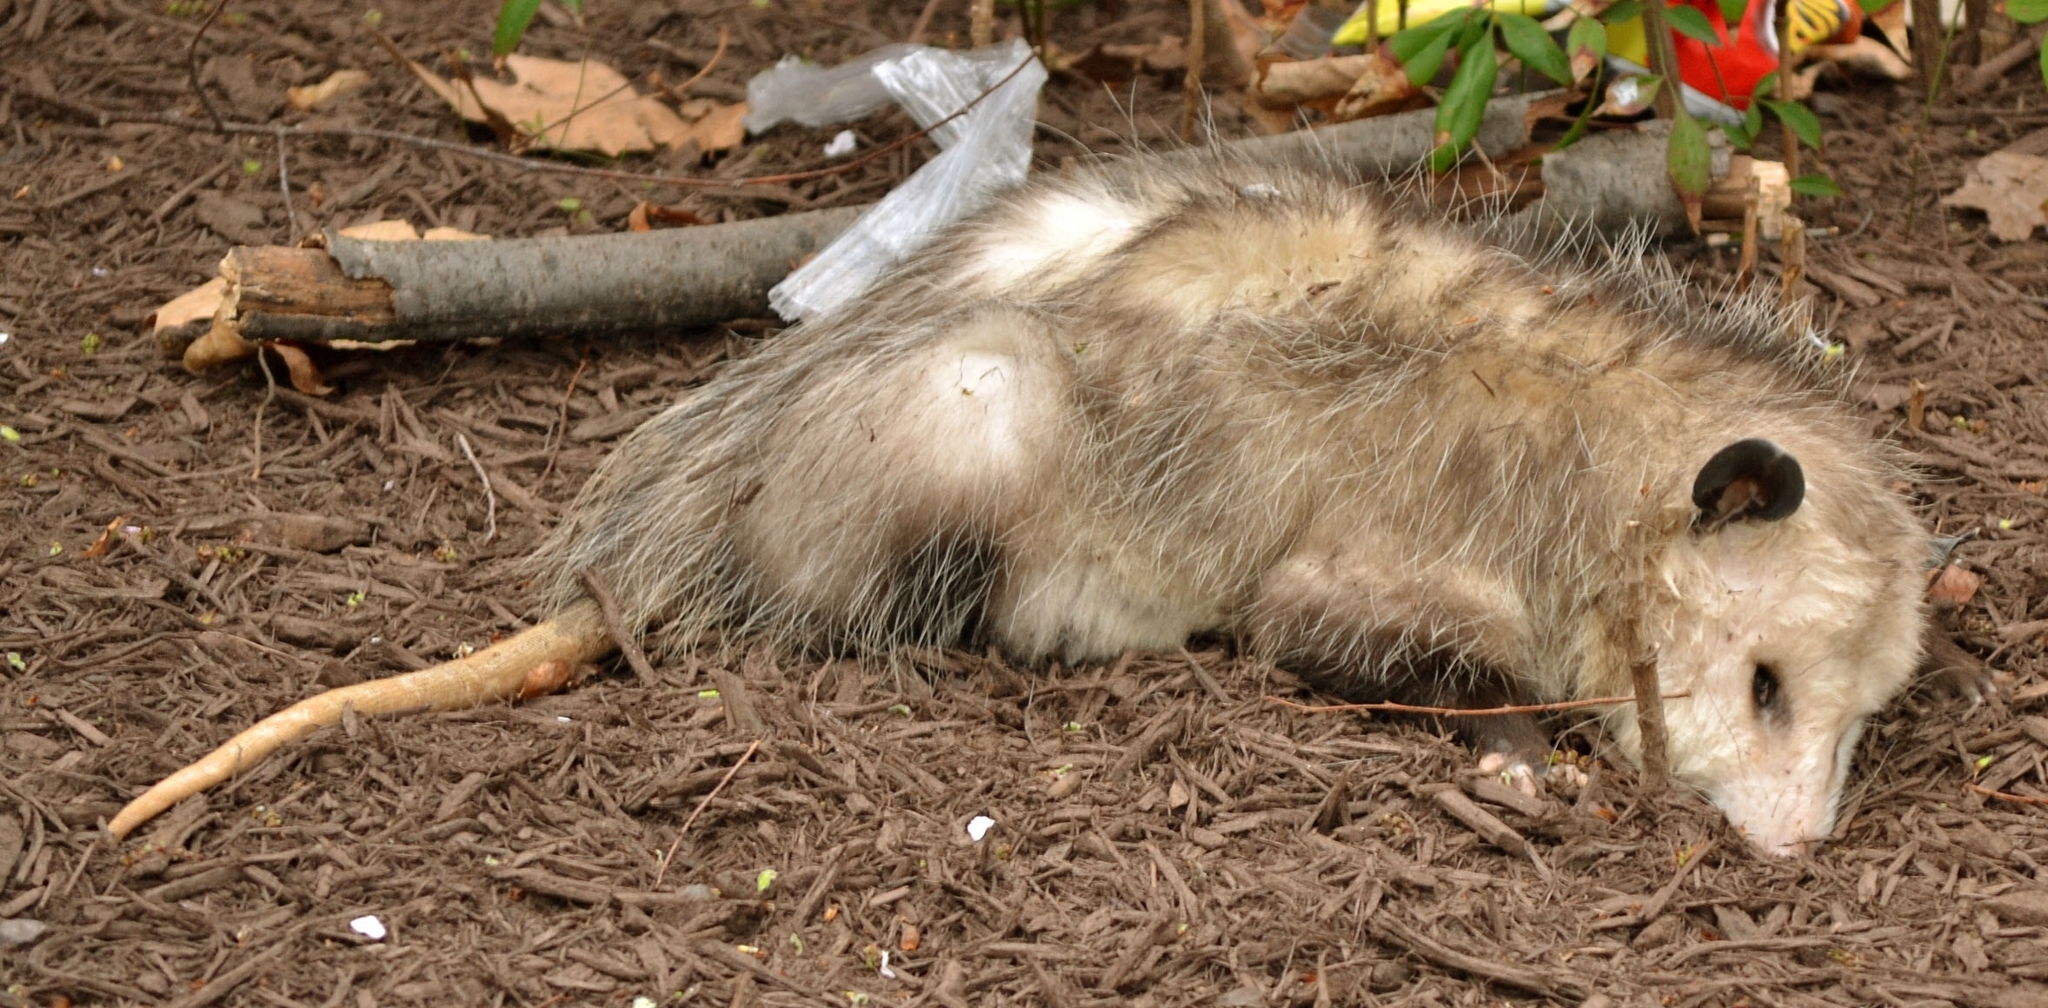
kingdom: Animalia
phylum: Chordata
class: Mammalia
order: Didelphimorphia
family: Didelphidae
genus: Didelphis
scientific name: Didelphis virginiana
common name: Virginia opossum
